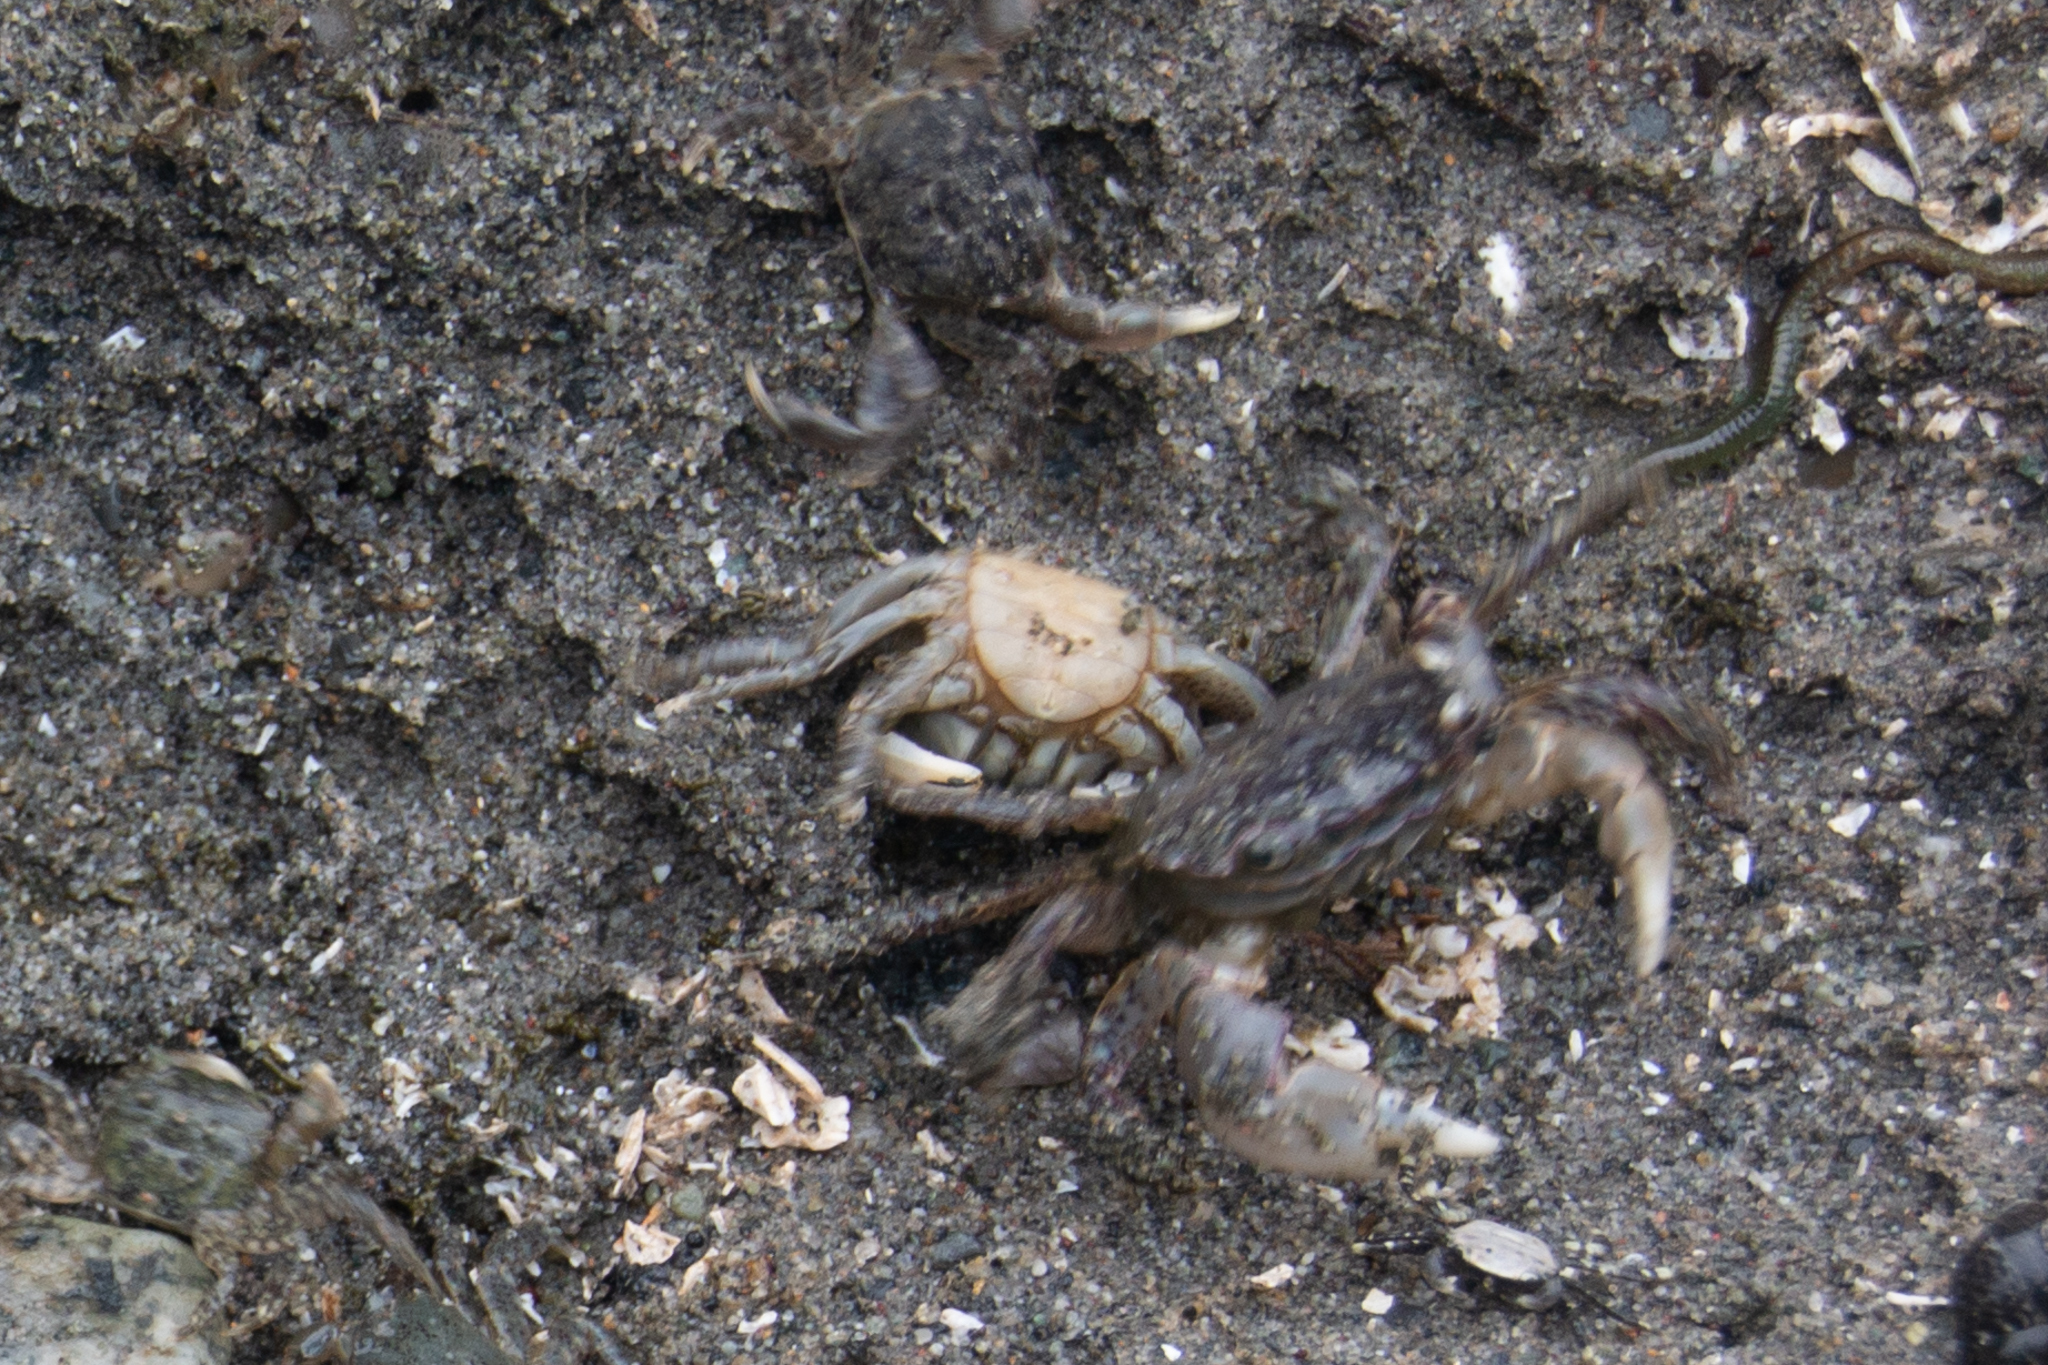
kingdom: Animalia
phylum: Arthropoda
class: Malacostraca
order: Decapoda
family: Varunidae
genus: Hemigrapsus
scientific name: Hemigrapsus oregonensis
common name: Yellow shore crab
